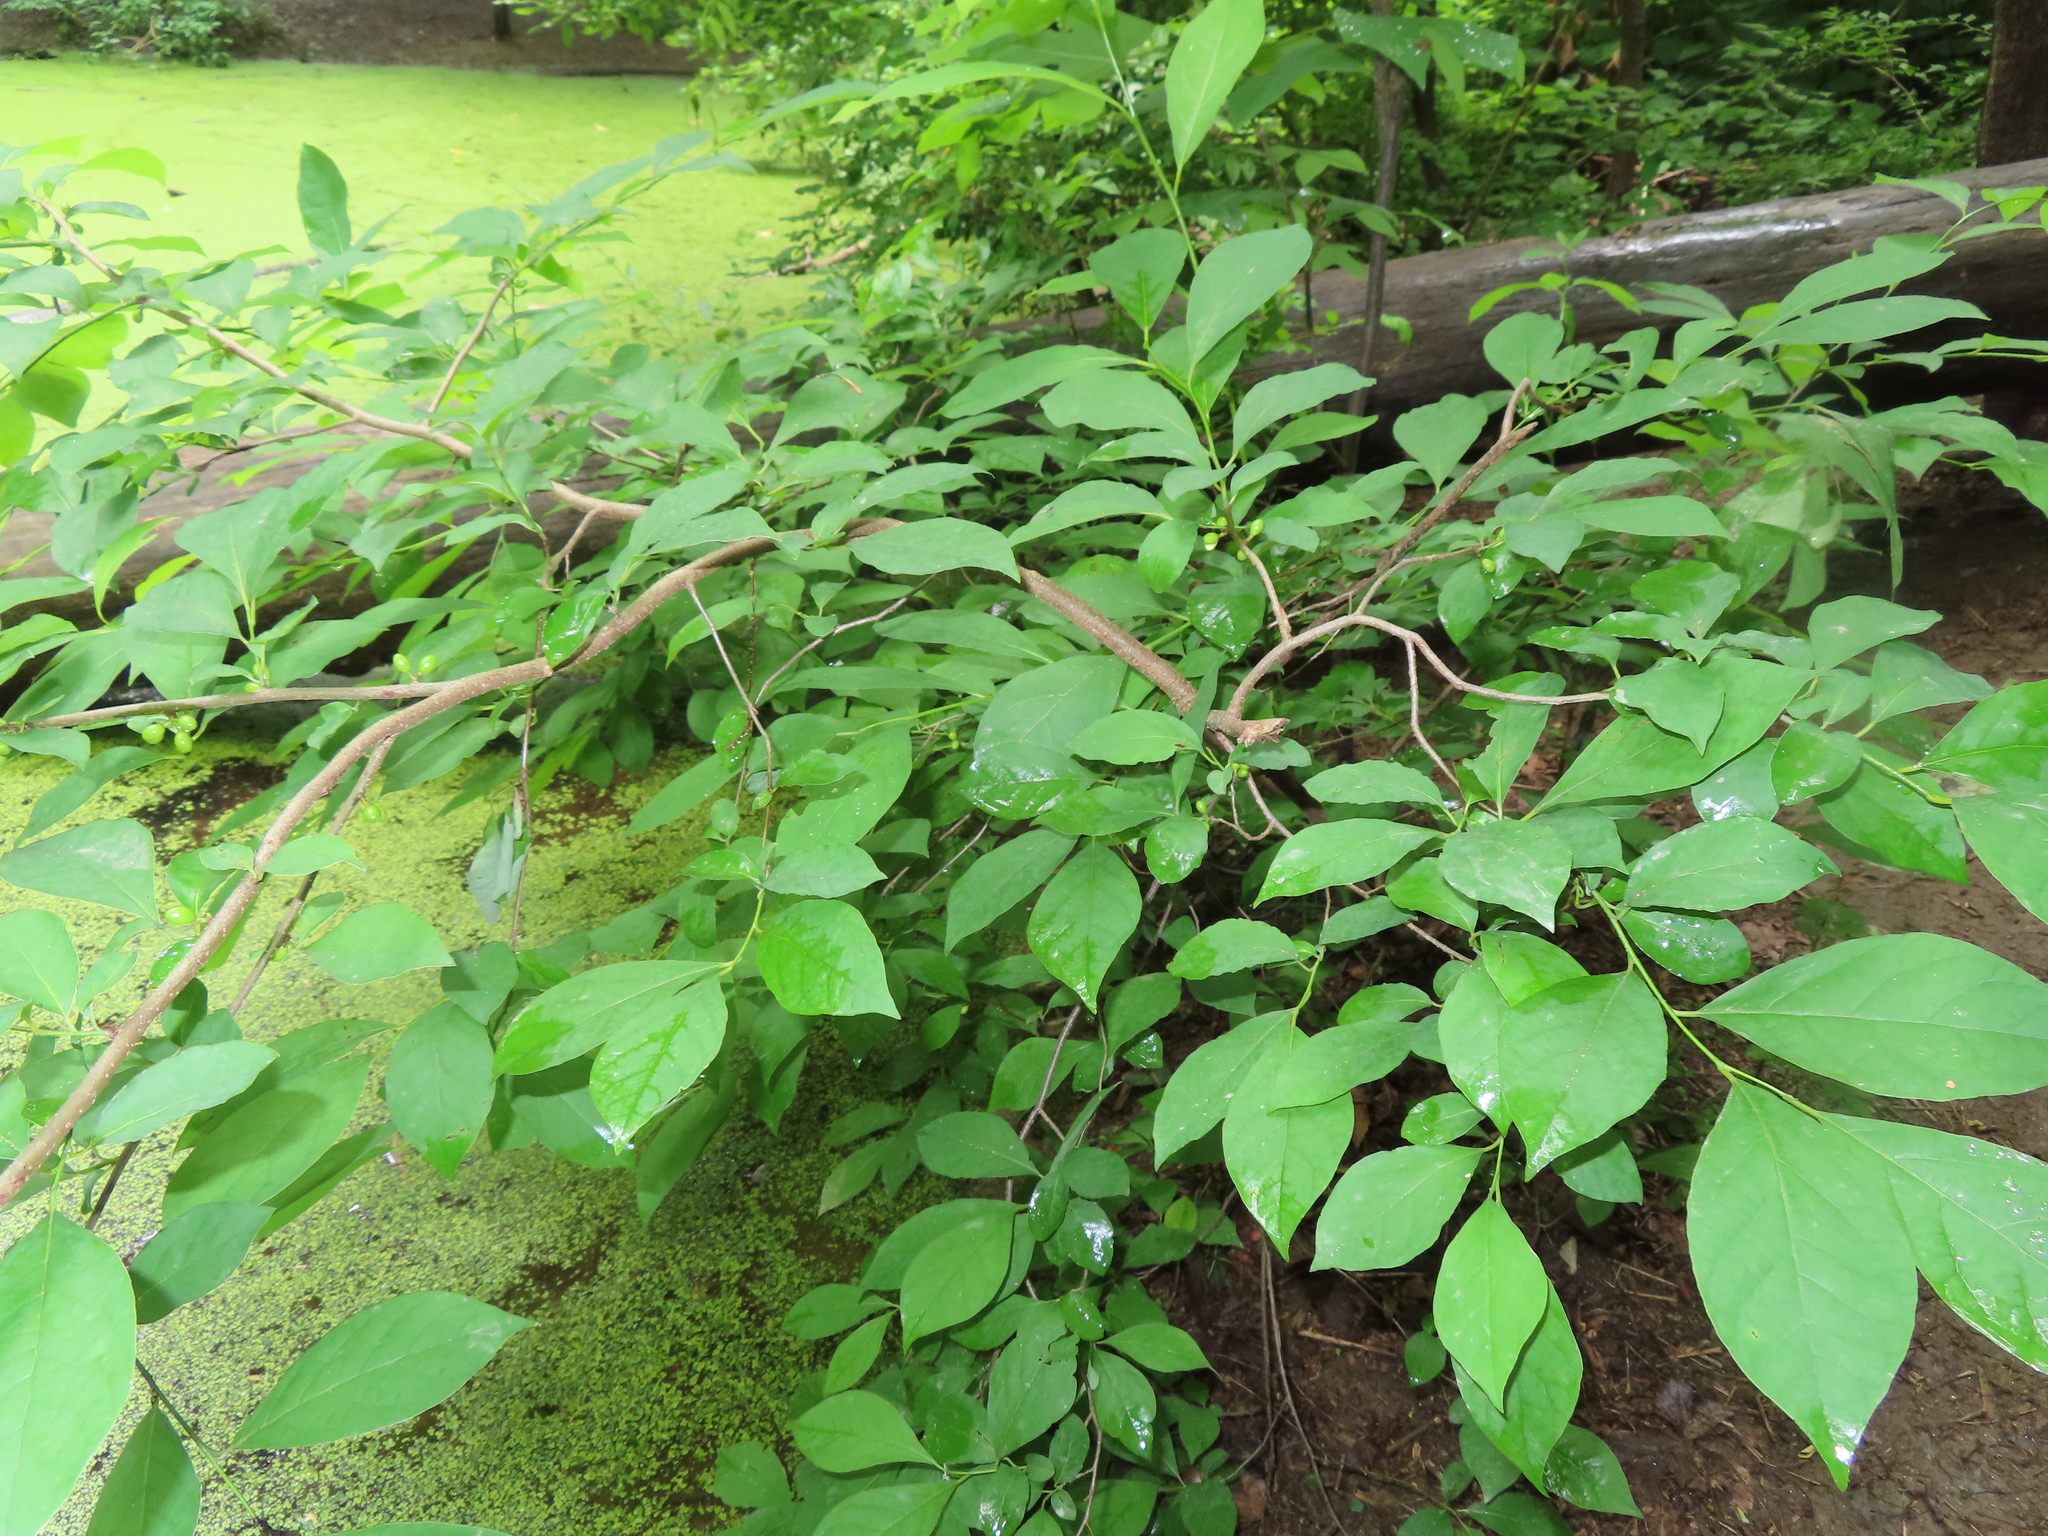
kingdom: Plantae
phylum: Tracheophyta
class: Magnoliopsida
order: Laurales
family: Lauraceae
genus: Lindera
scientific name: Lindera benzoin
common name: Spicebush
